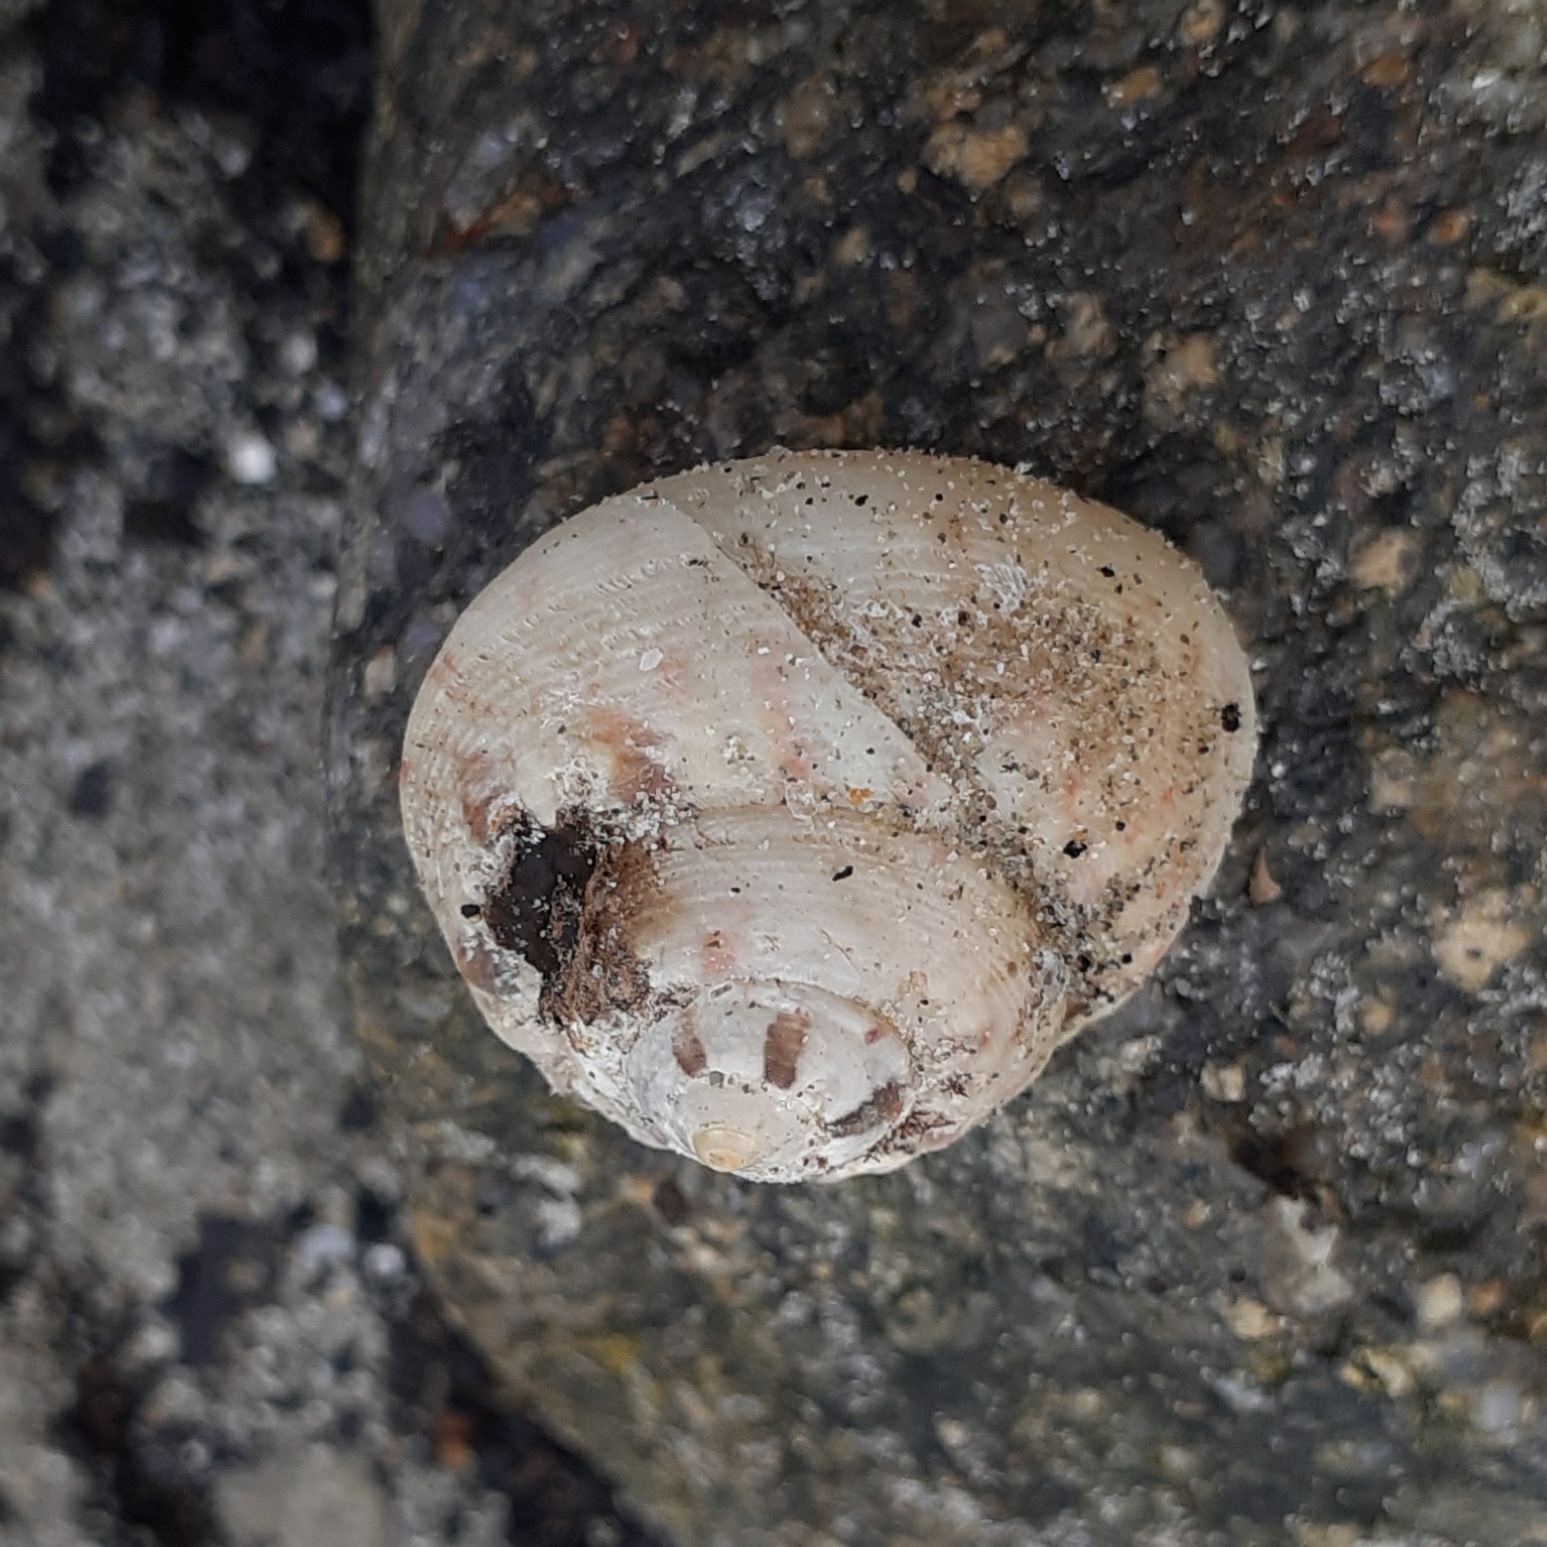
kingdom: Animalia
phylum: Mollusca
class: Gastropoda
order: Trochida
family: Trochidae
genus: Gibbula
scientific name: Gibbula magus
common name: Turban top shell
